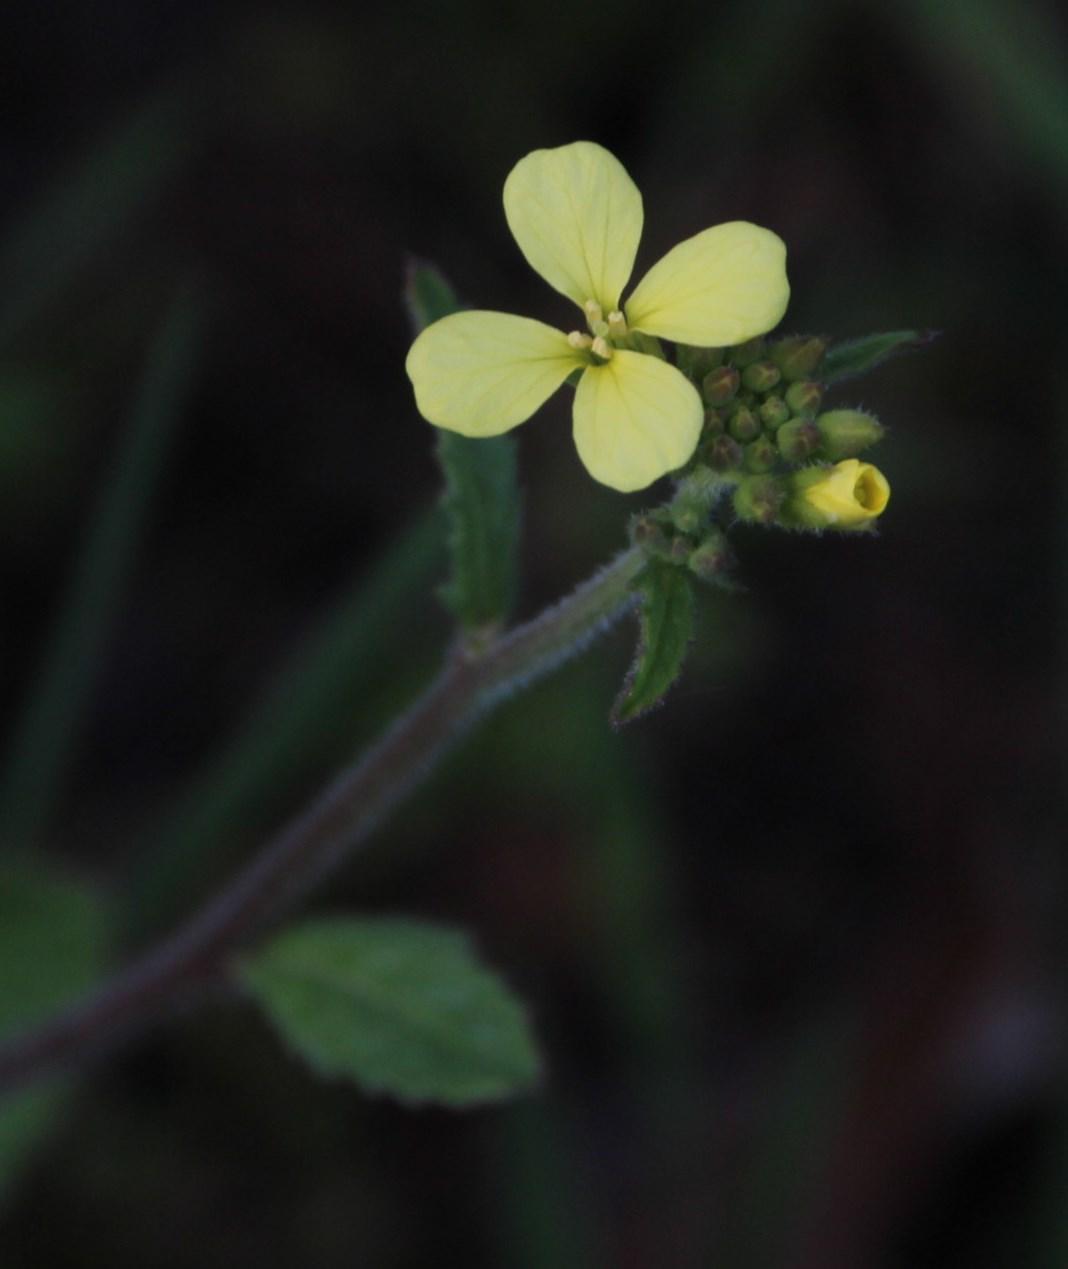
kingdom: Plantae
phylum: Tracheophyta
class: Magnoliopsida
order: Brassicales
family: Brassicaceae
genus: Raphanus
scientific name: Raphanus raphanistrum
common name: Wild radish
